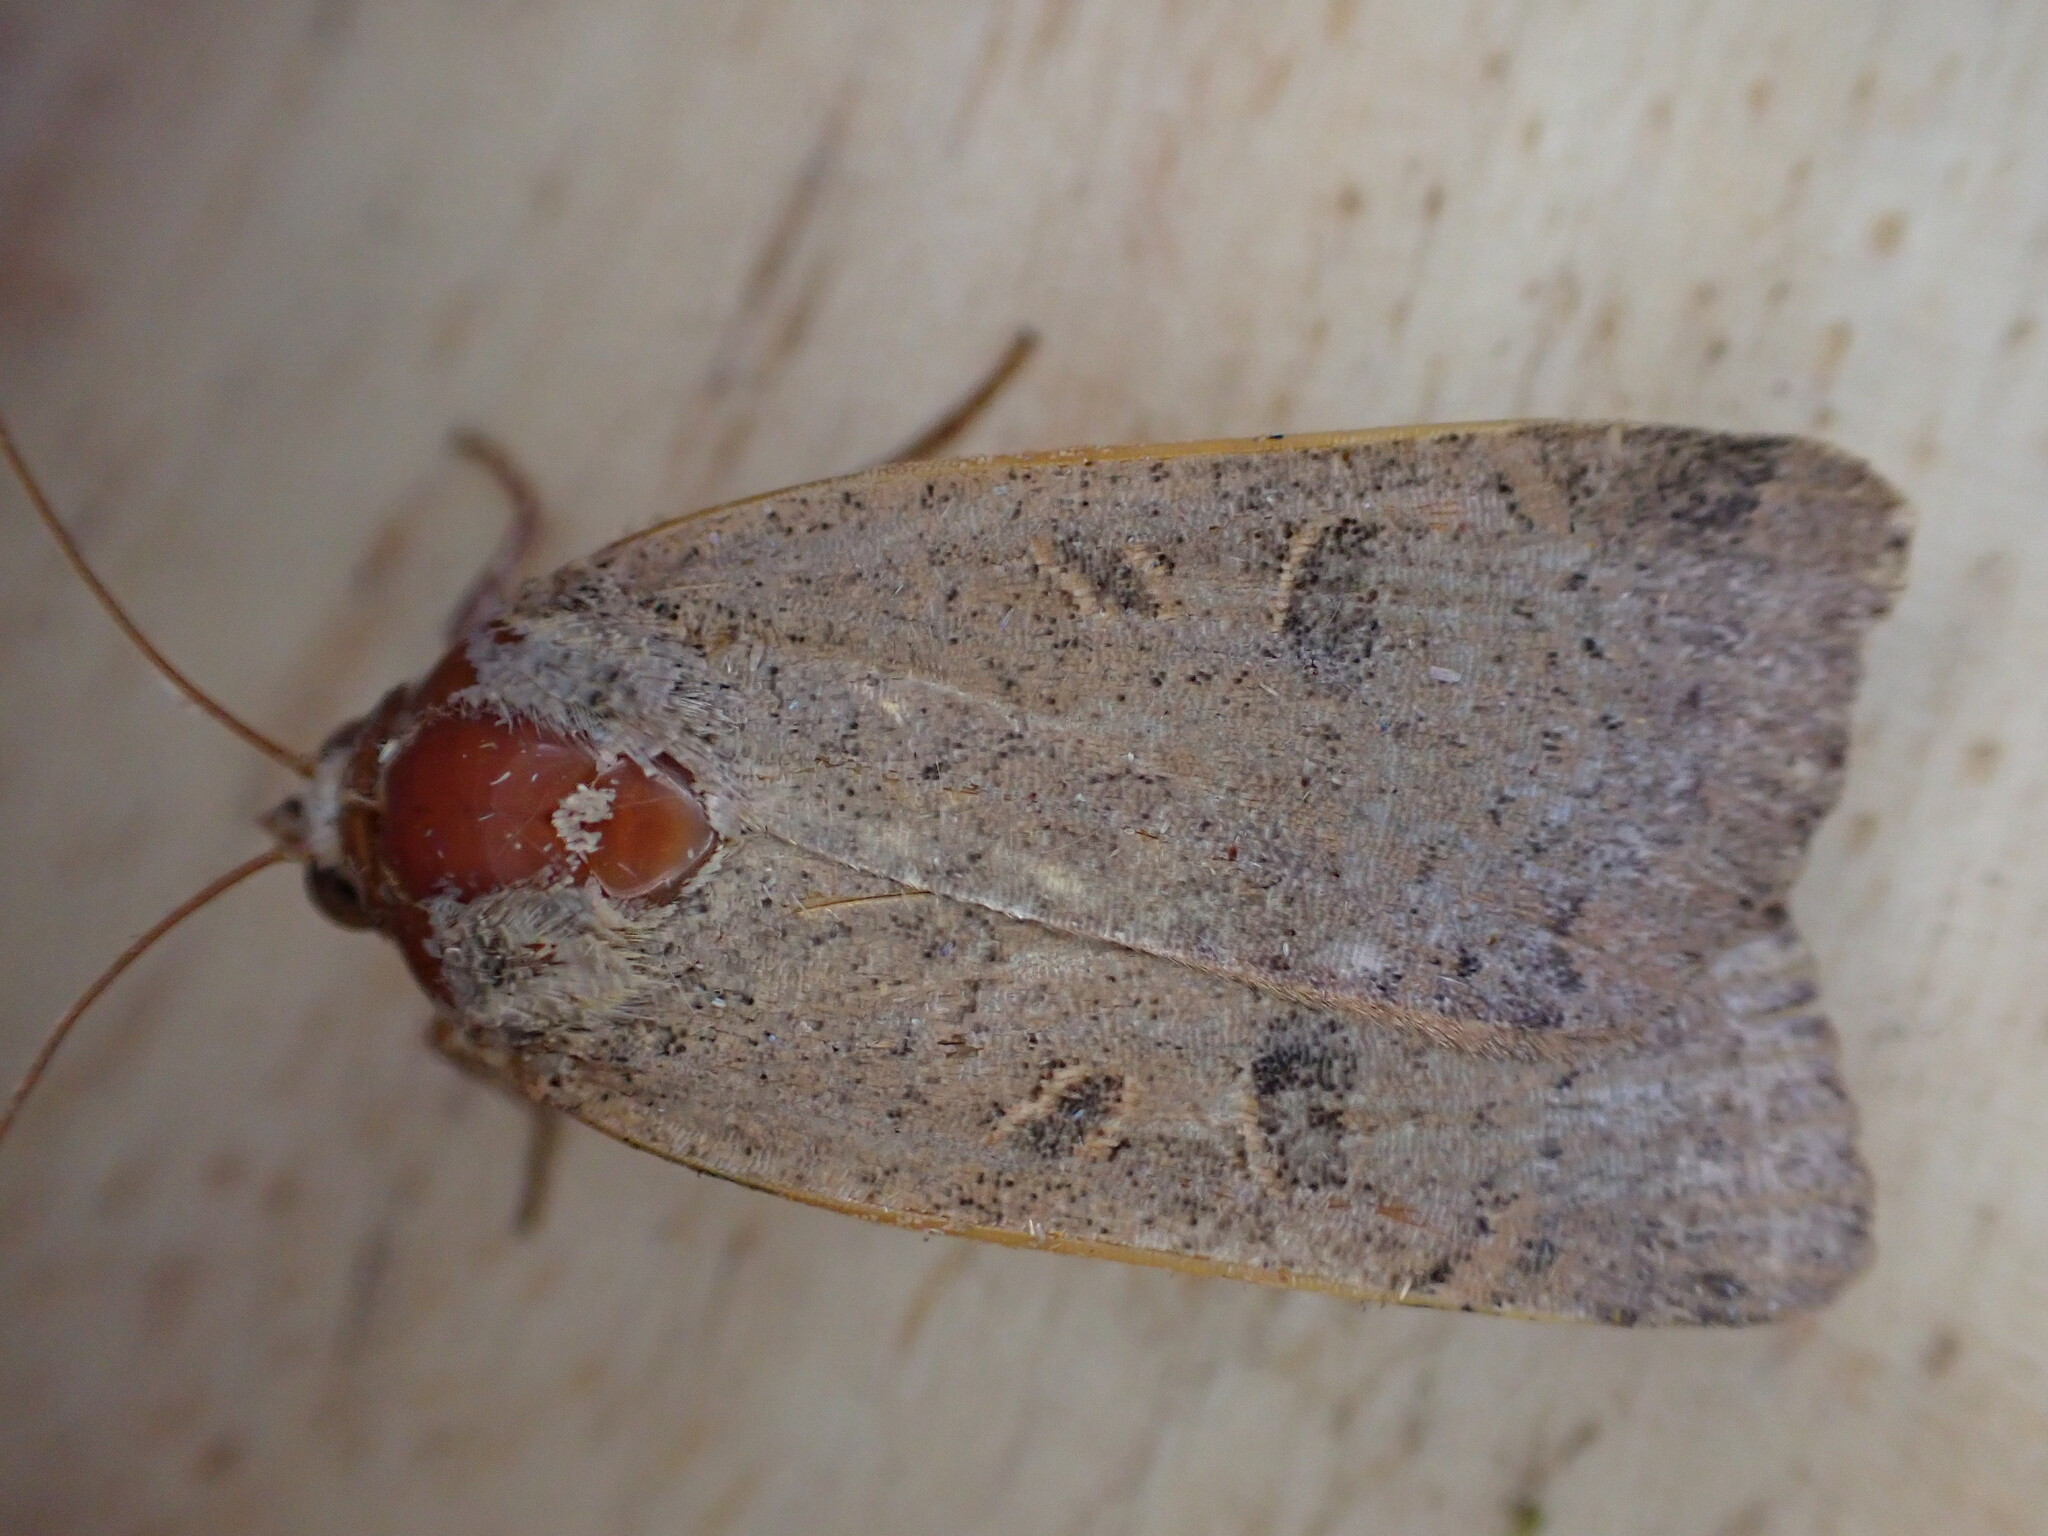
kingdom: Animalia
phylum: Arthropoda
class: Insecta
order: Lepidoptera
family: Noctuidae
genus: Noctua
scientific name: Noctua comes
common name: Lesser yellow underwing
